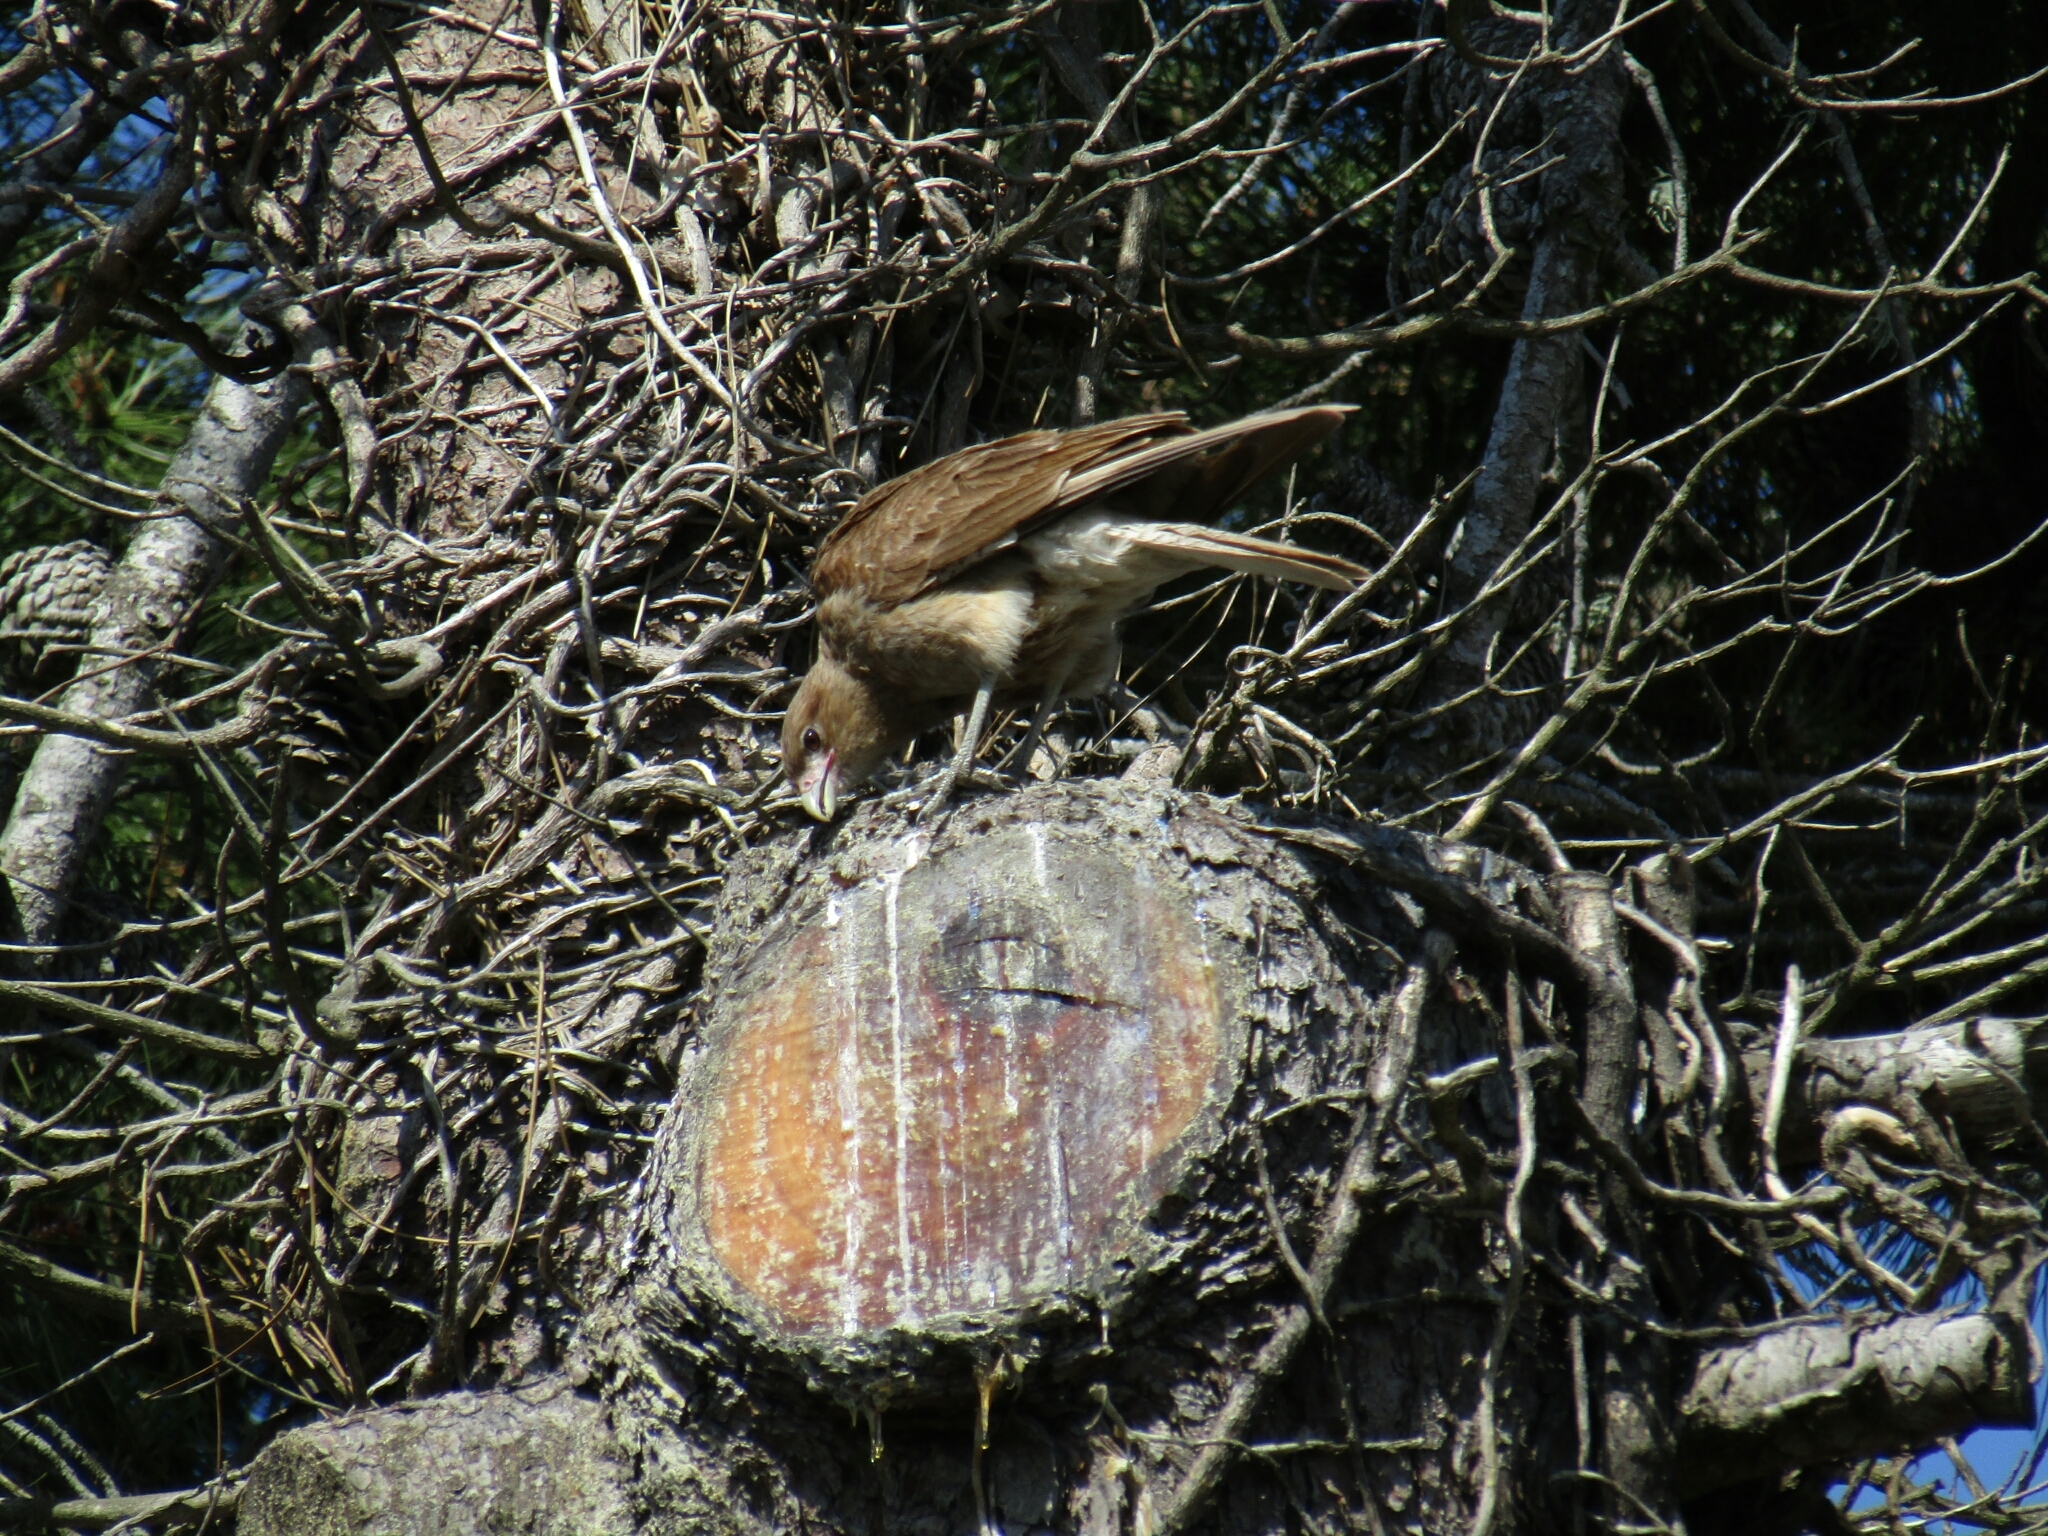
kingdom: Animalia
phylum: Chordata
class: Aves
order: Falconiformes
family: Falconidae
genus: Daptrius
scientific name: Daptrius
